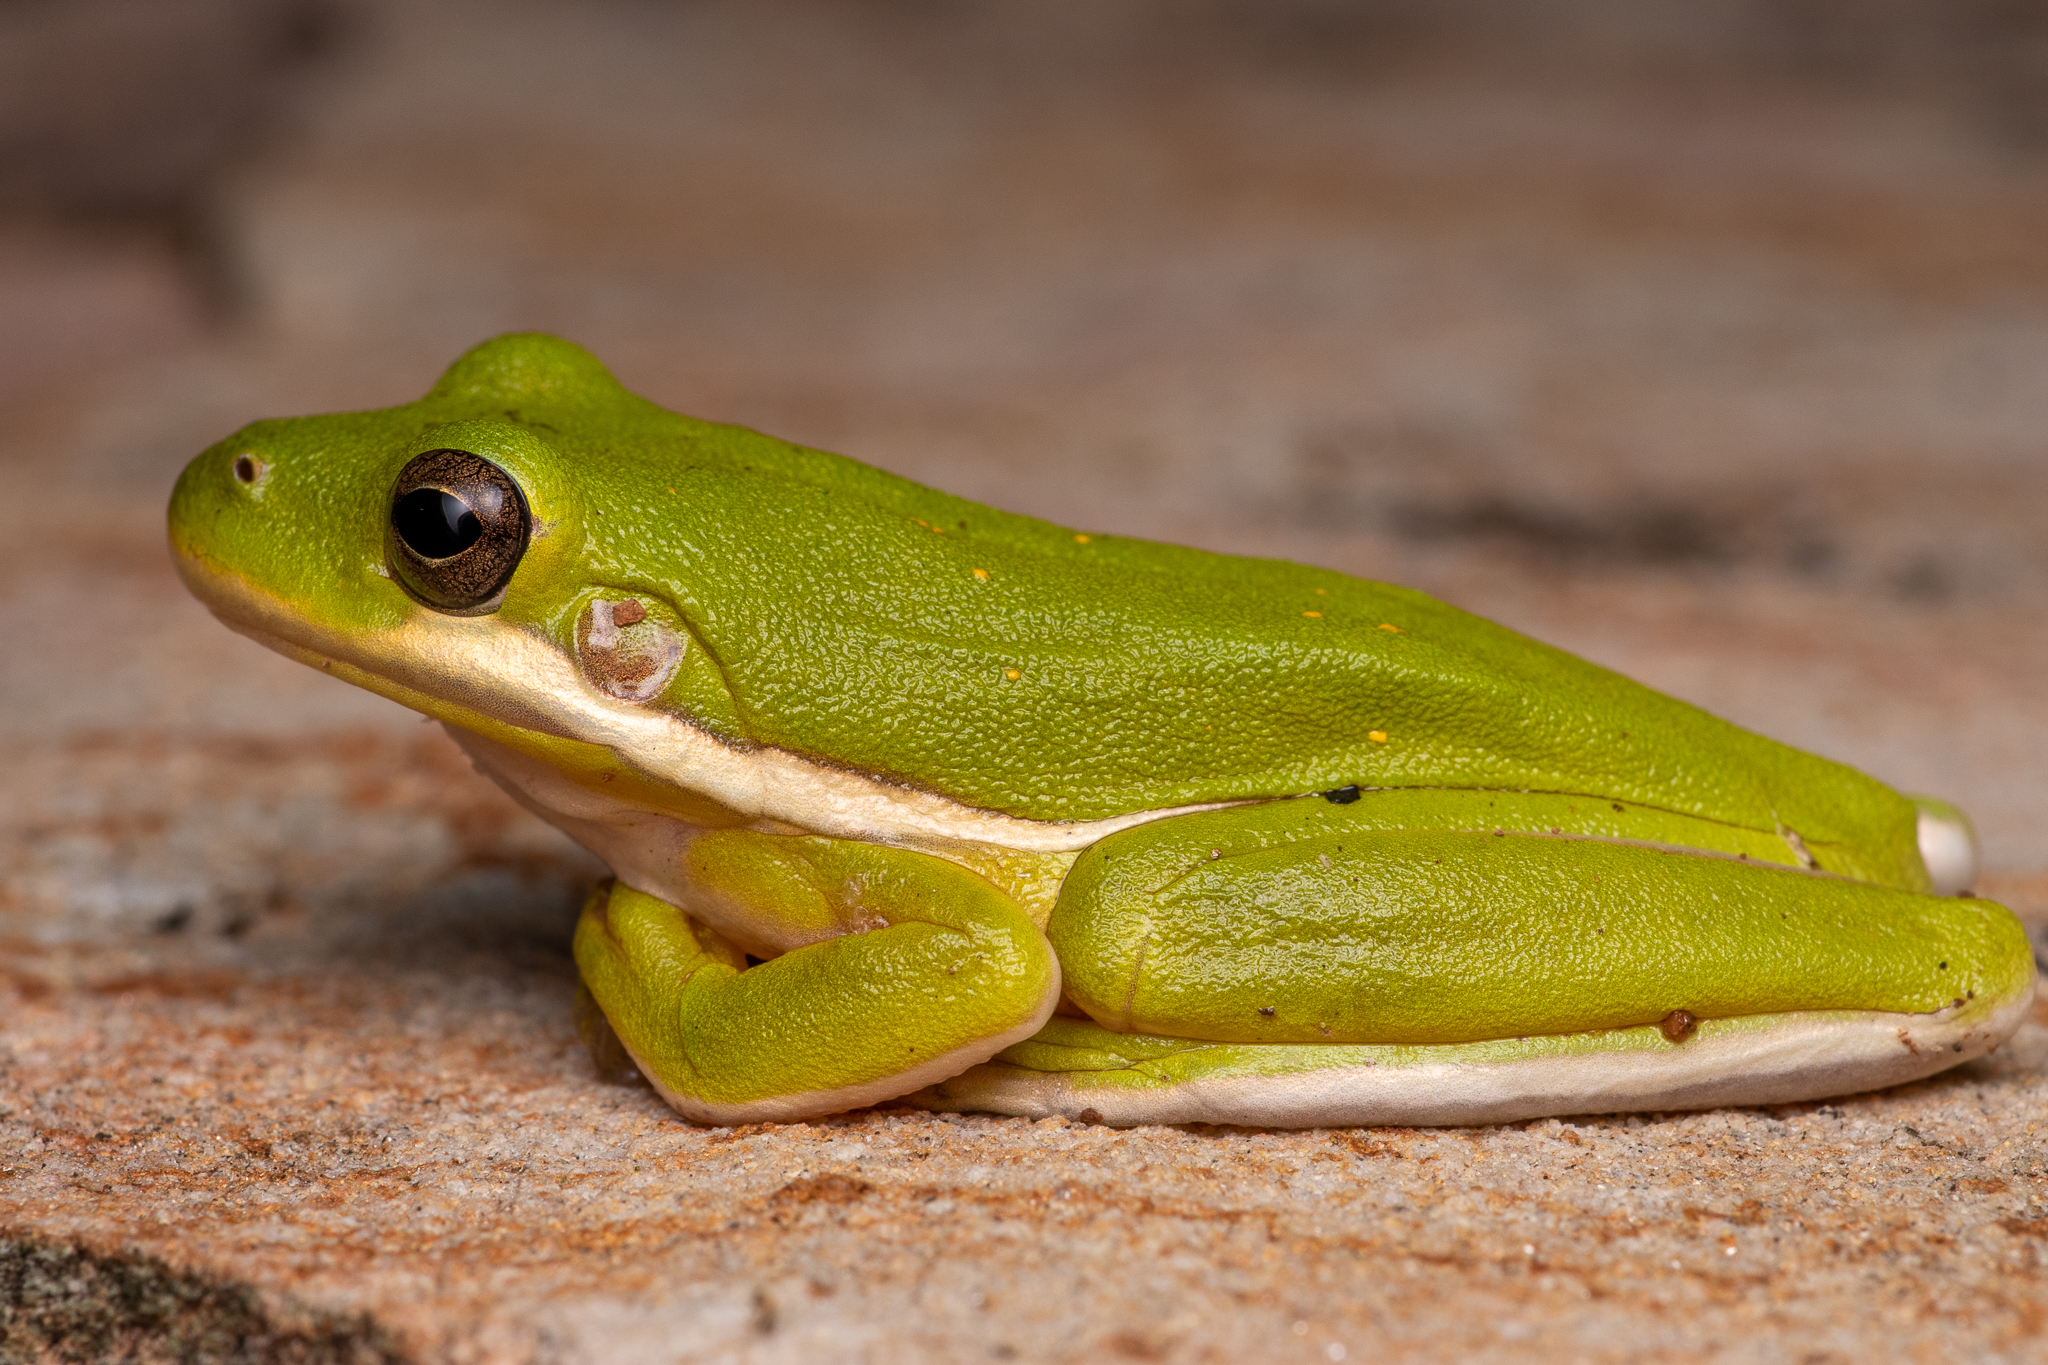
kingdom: Animalia
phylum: Chordata
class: Amphibia
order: Anura
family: Hylidae
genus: Dryophytes
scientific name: Dryophytes cinereus
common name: Green treefrog
